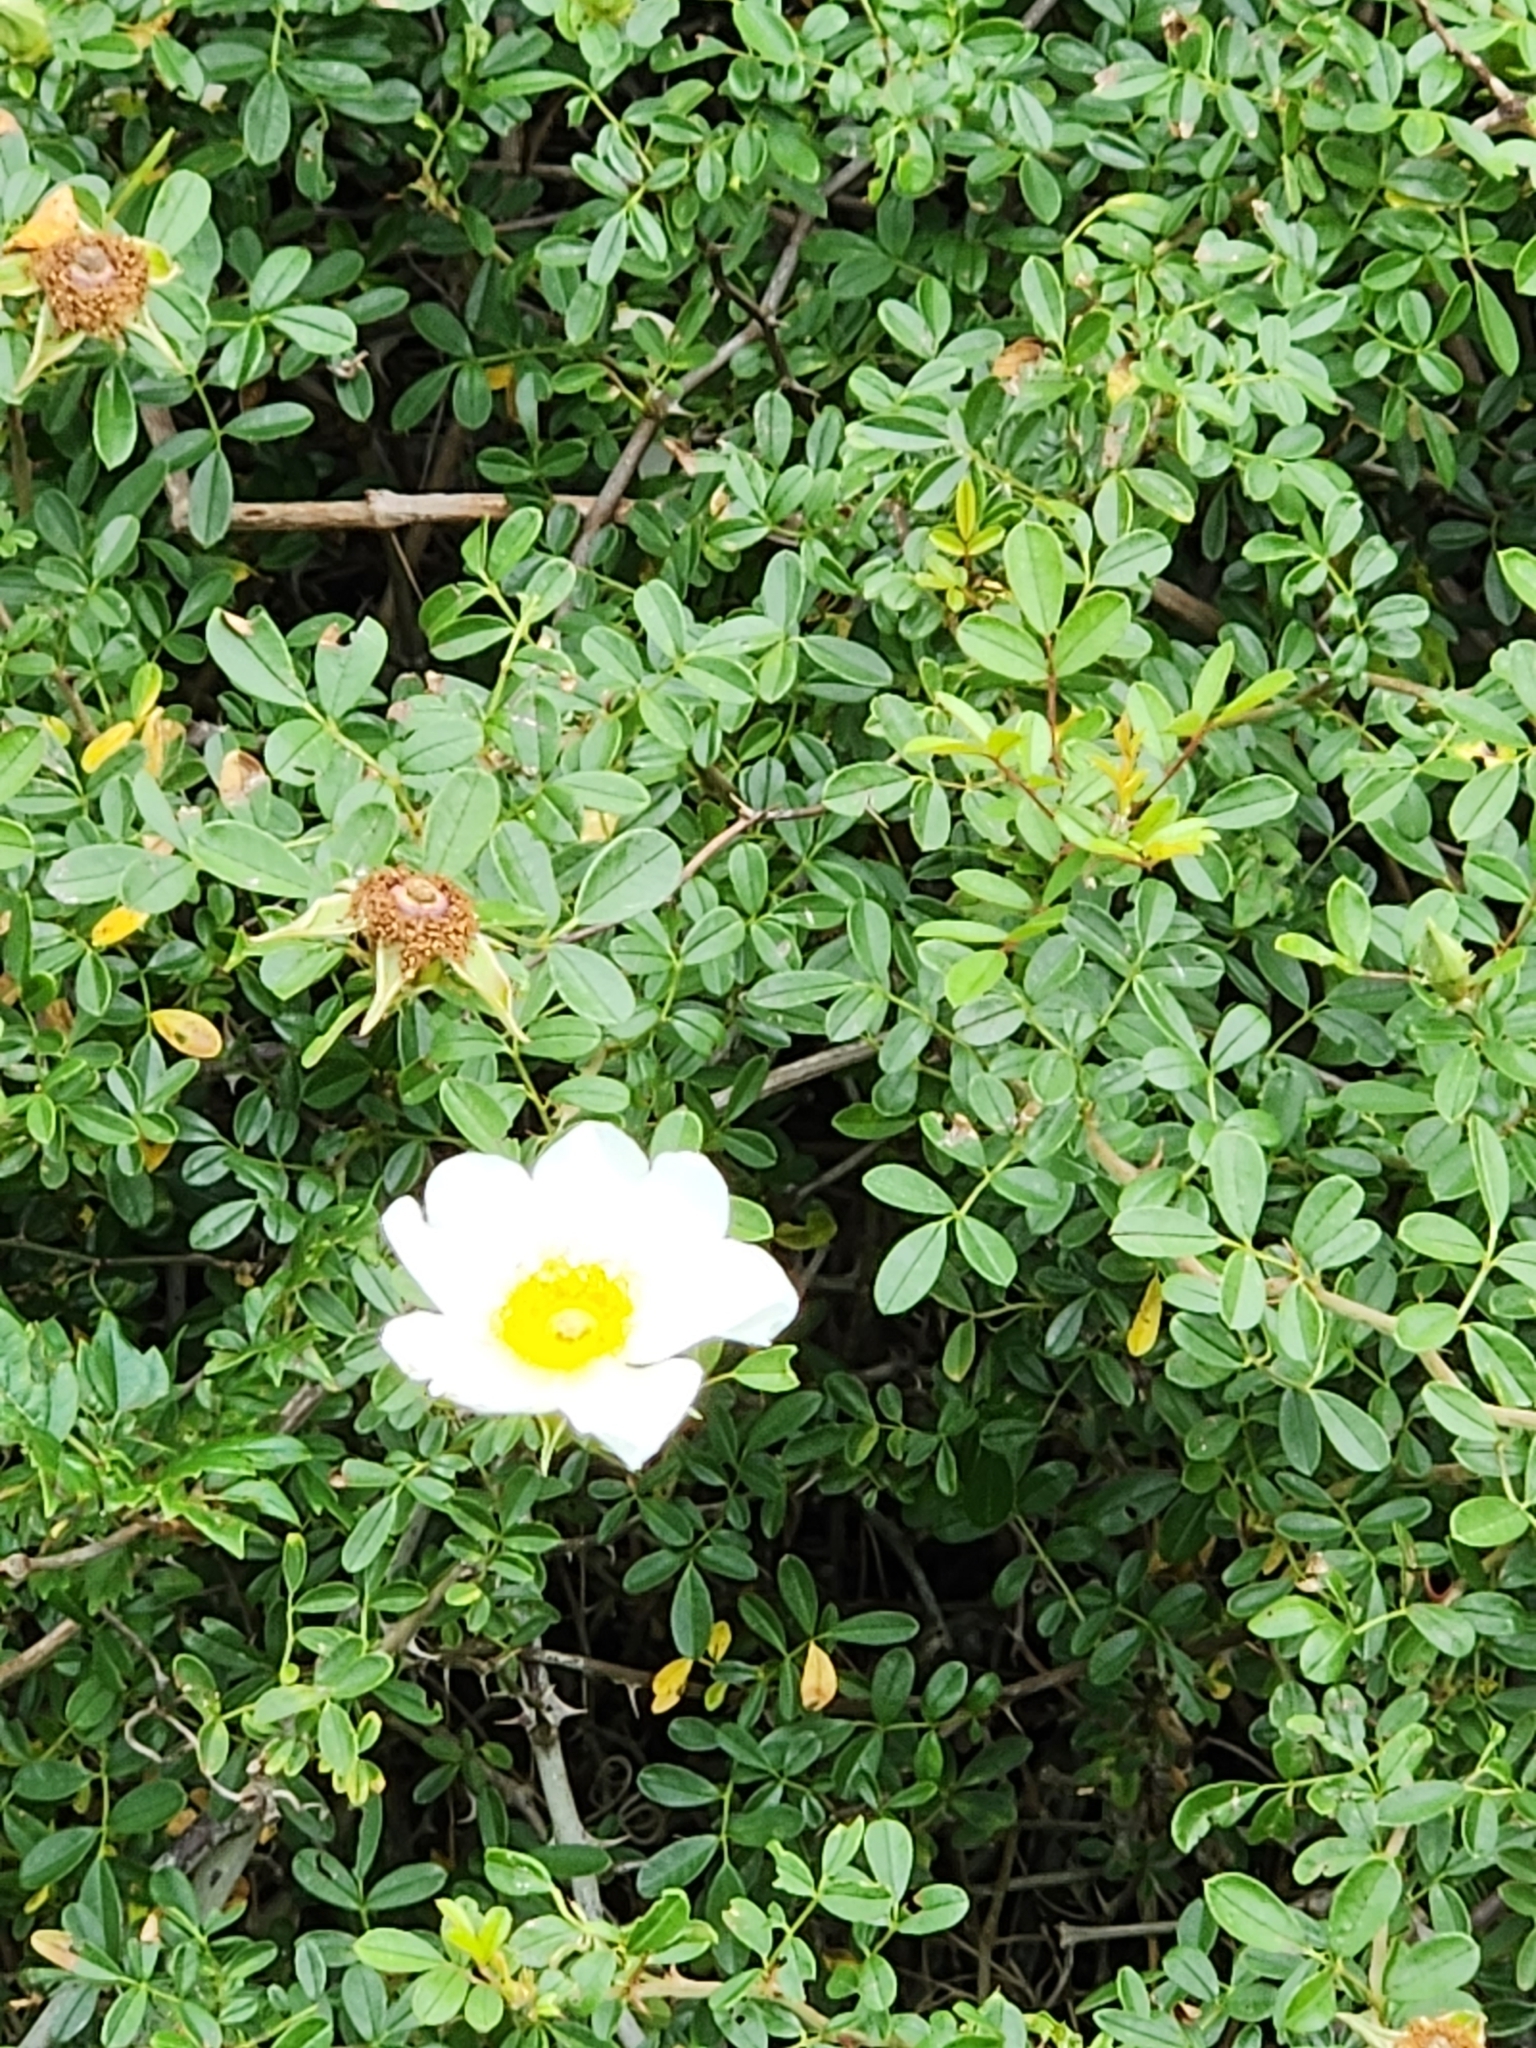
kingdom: Plantae
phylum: Tracheophyta
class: Magnoliopsida
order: Rosales
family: Rosaceae
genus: Rosa
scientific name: Rosa bracteata
